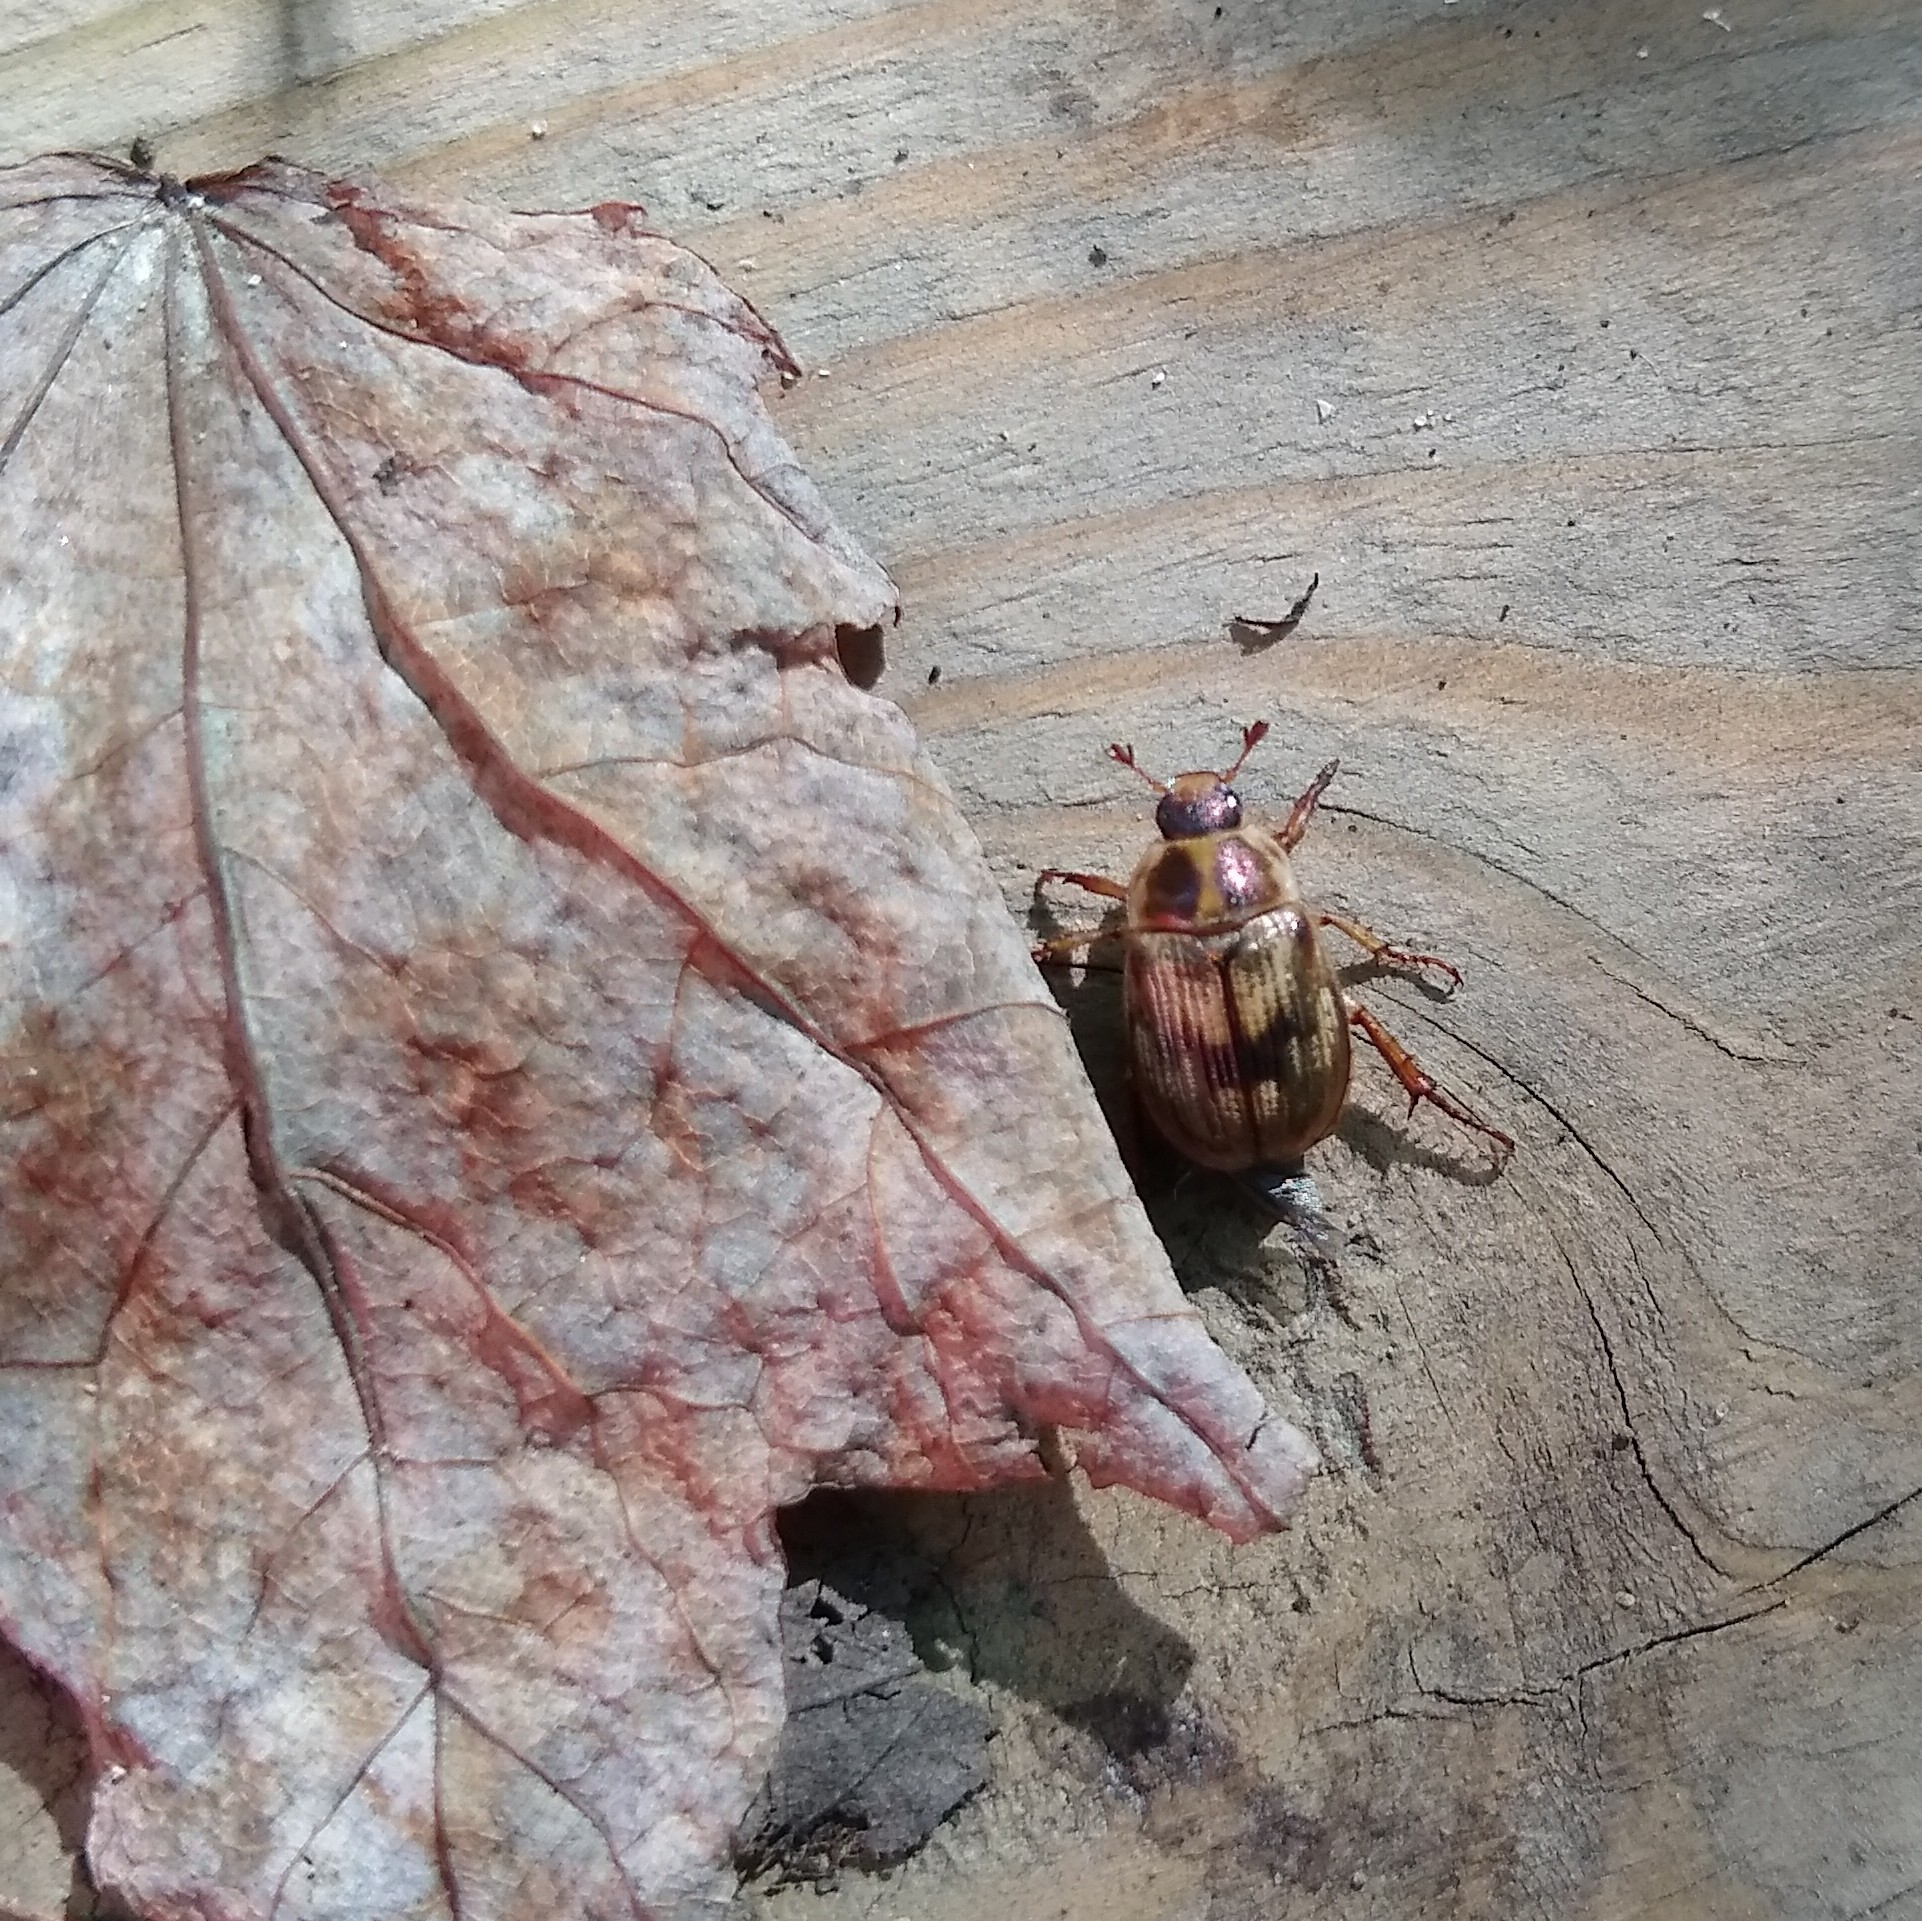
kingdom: Animalia
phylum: Arthropoda
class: Insecta
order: Coleoptera
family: Scarabaeidae
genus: Exomala
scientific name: Exomala orientalis
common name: Oriental beetle
